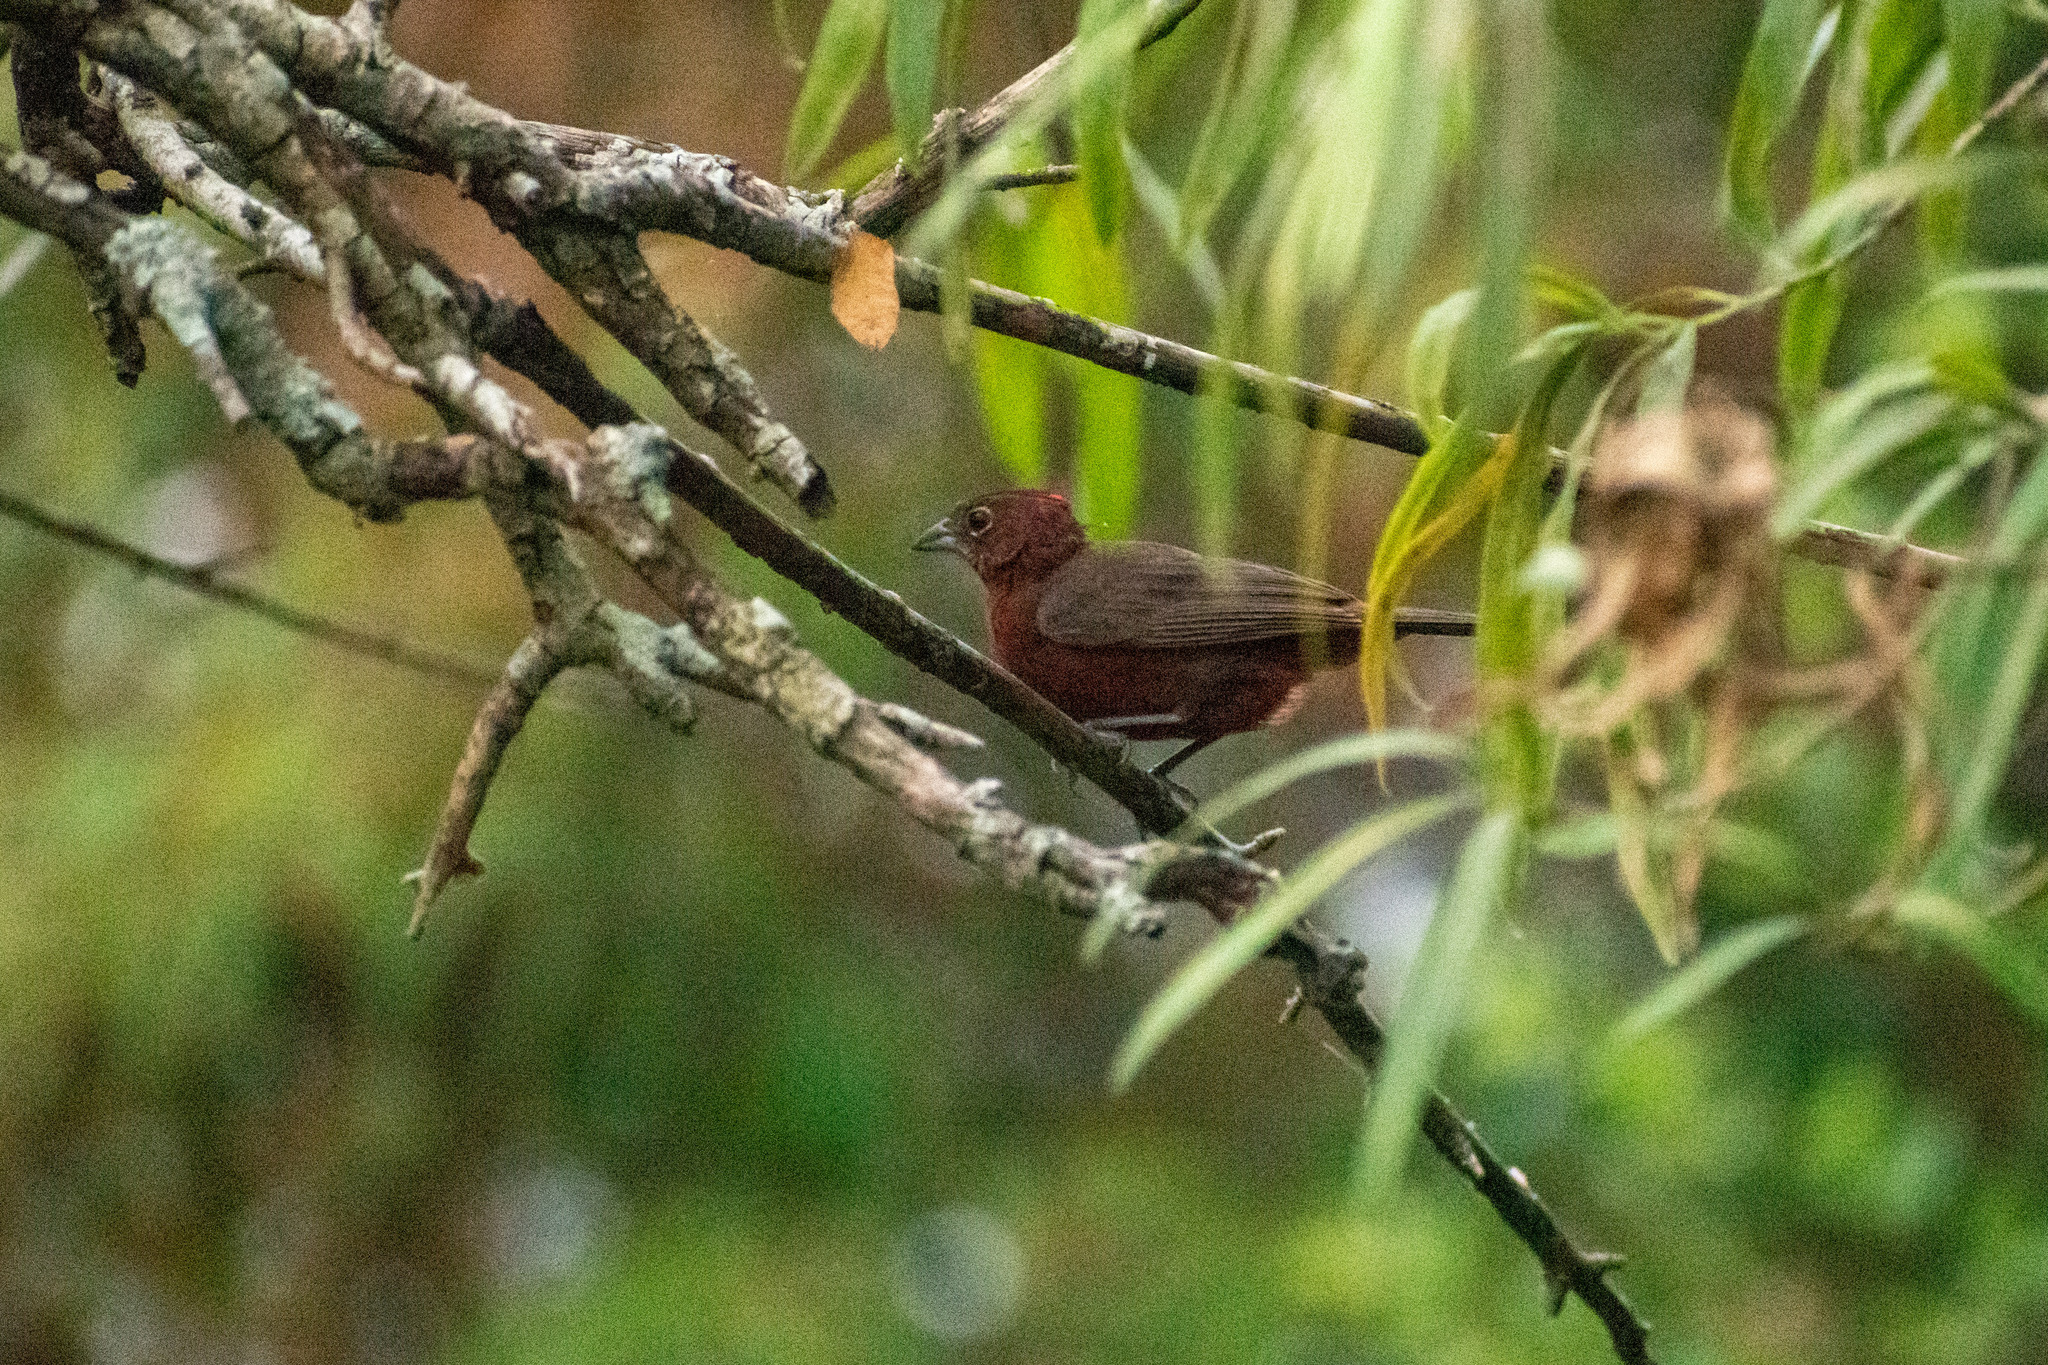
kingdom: Animalia
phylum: Chordata
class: Aves
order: Passeriformes
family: Thraupidae
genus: Coryphospingus
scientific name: Coryphospingus cucullatus
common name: Red pileated finch
